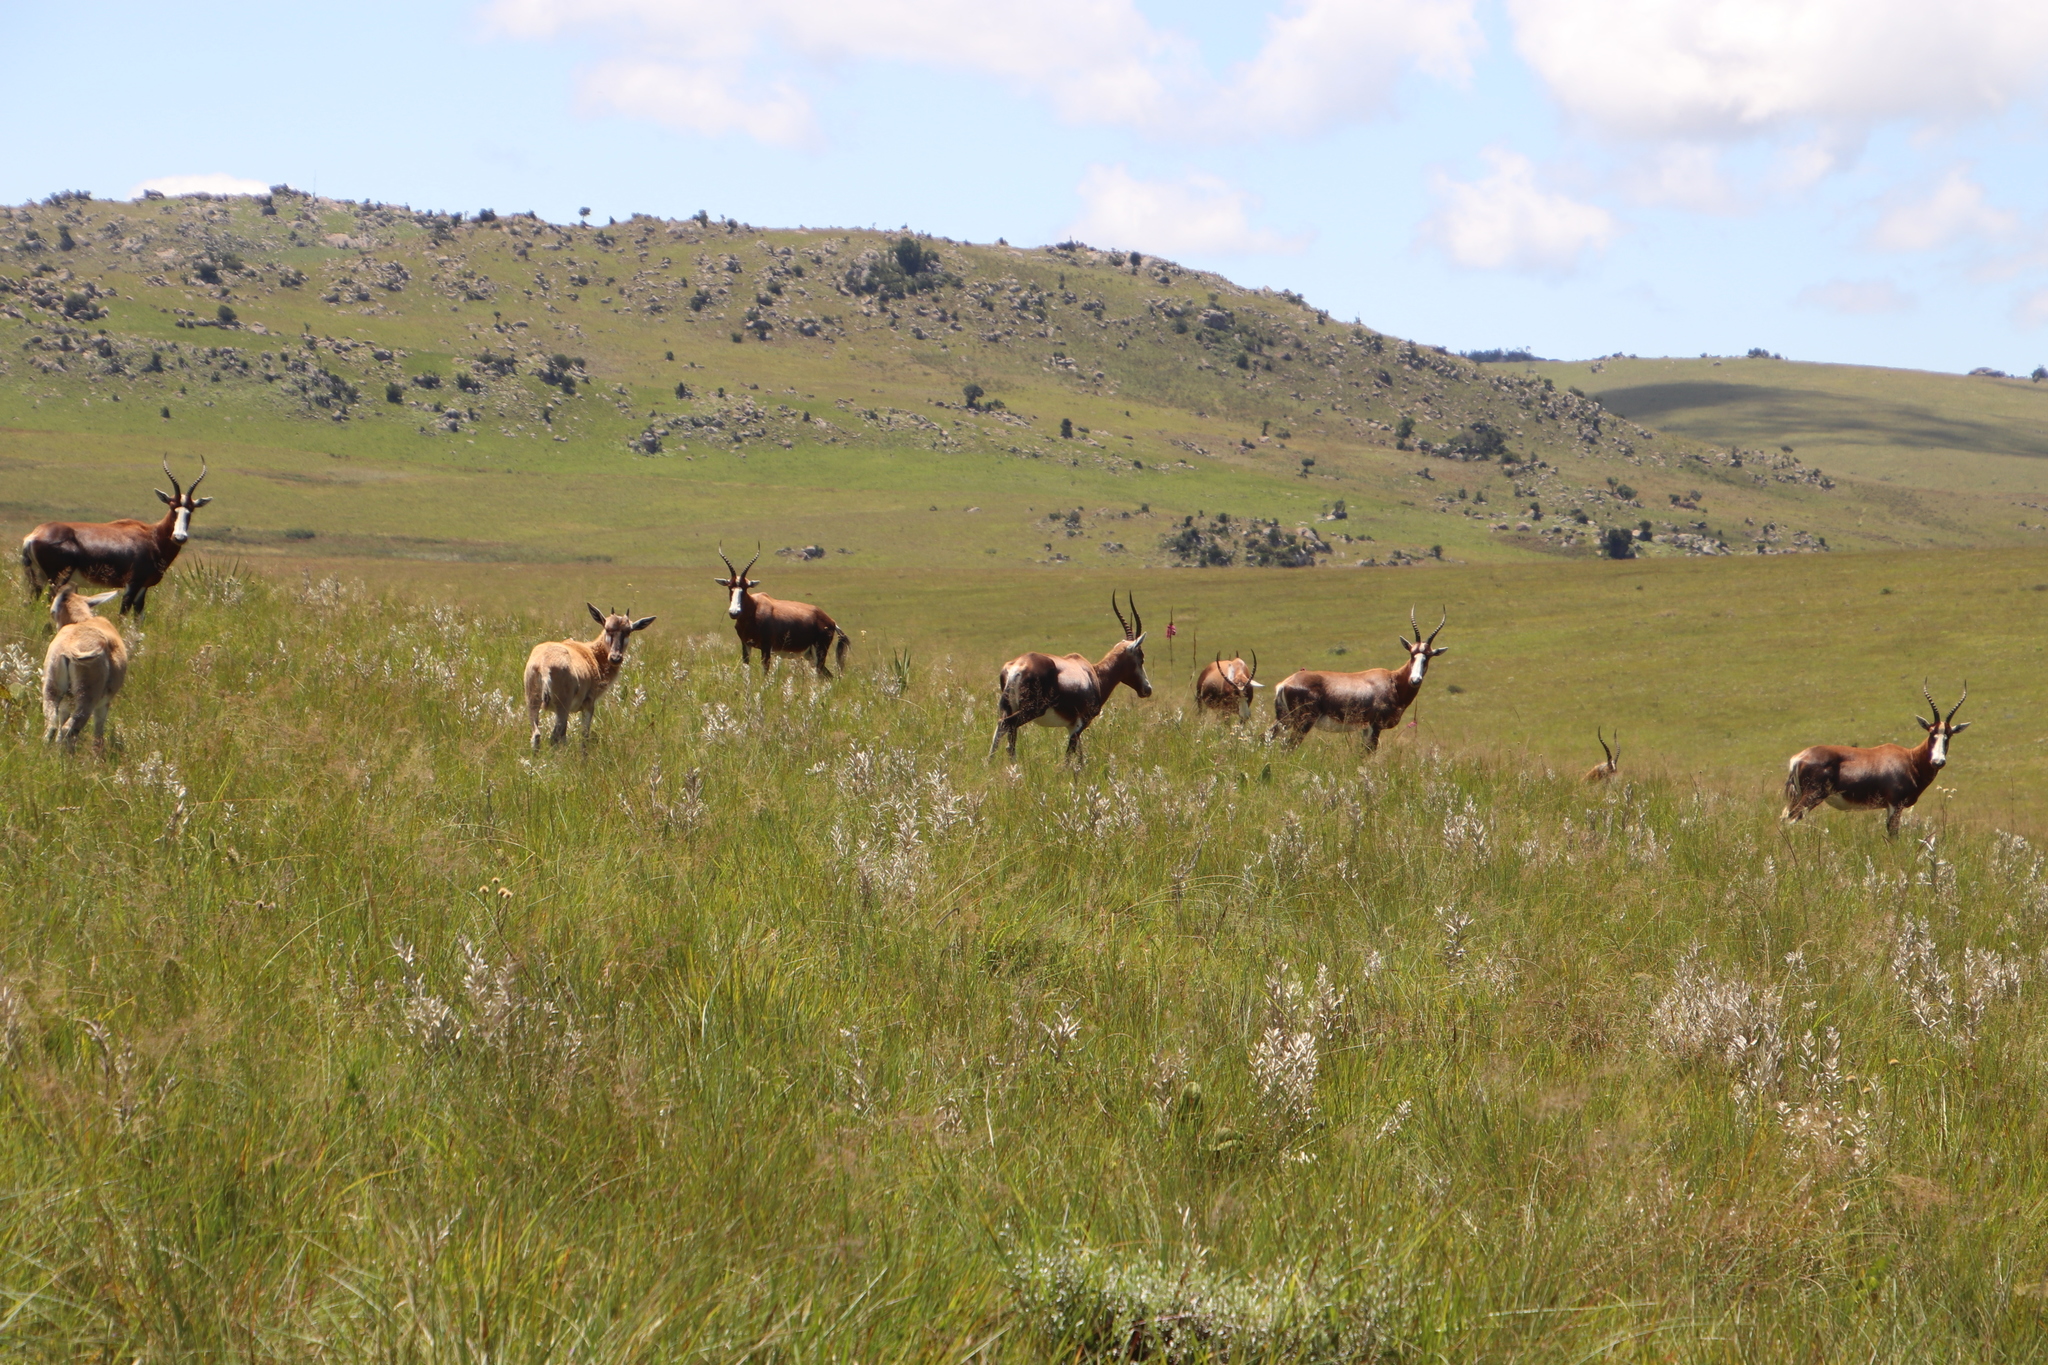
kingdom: Animalia
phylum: Chordata
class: Mammalia
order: Artiodactyla
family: Bovidae
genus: Damaliscus
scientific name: Damaliscus pygargus
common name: Bontebok
